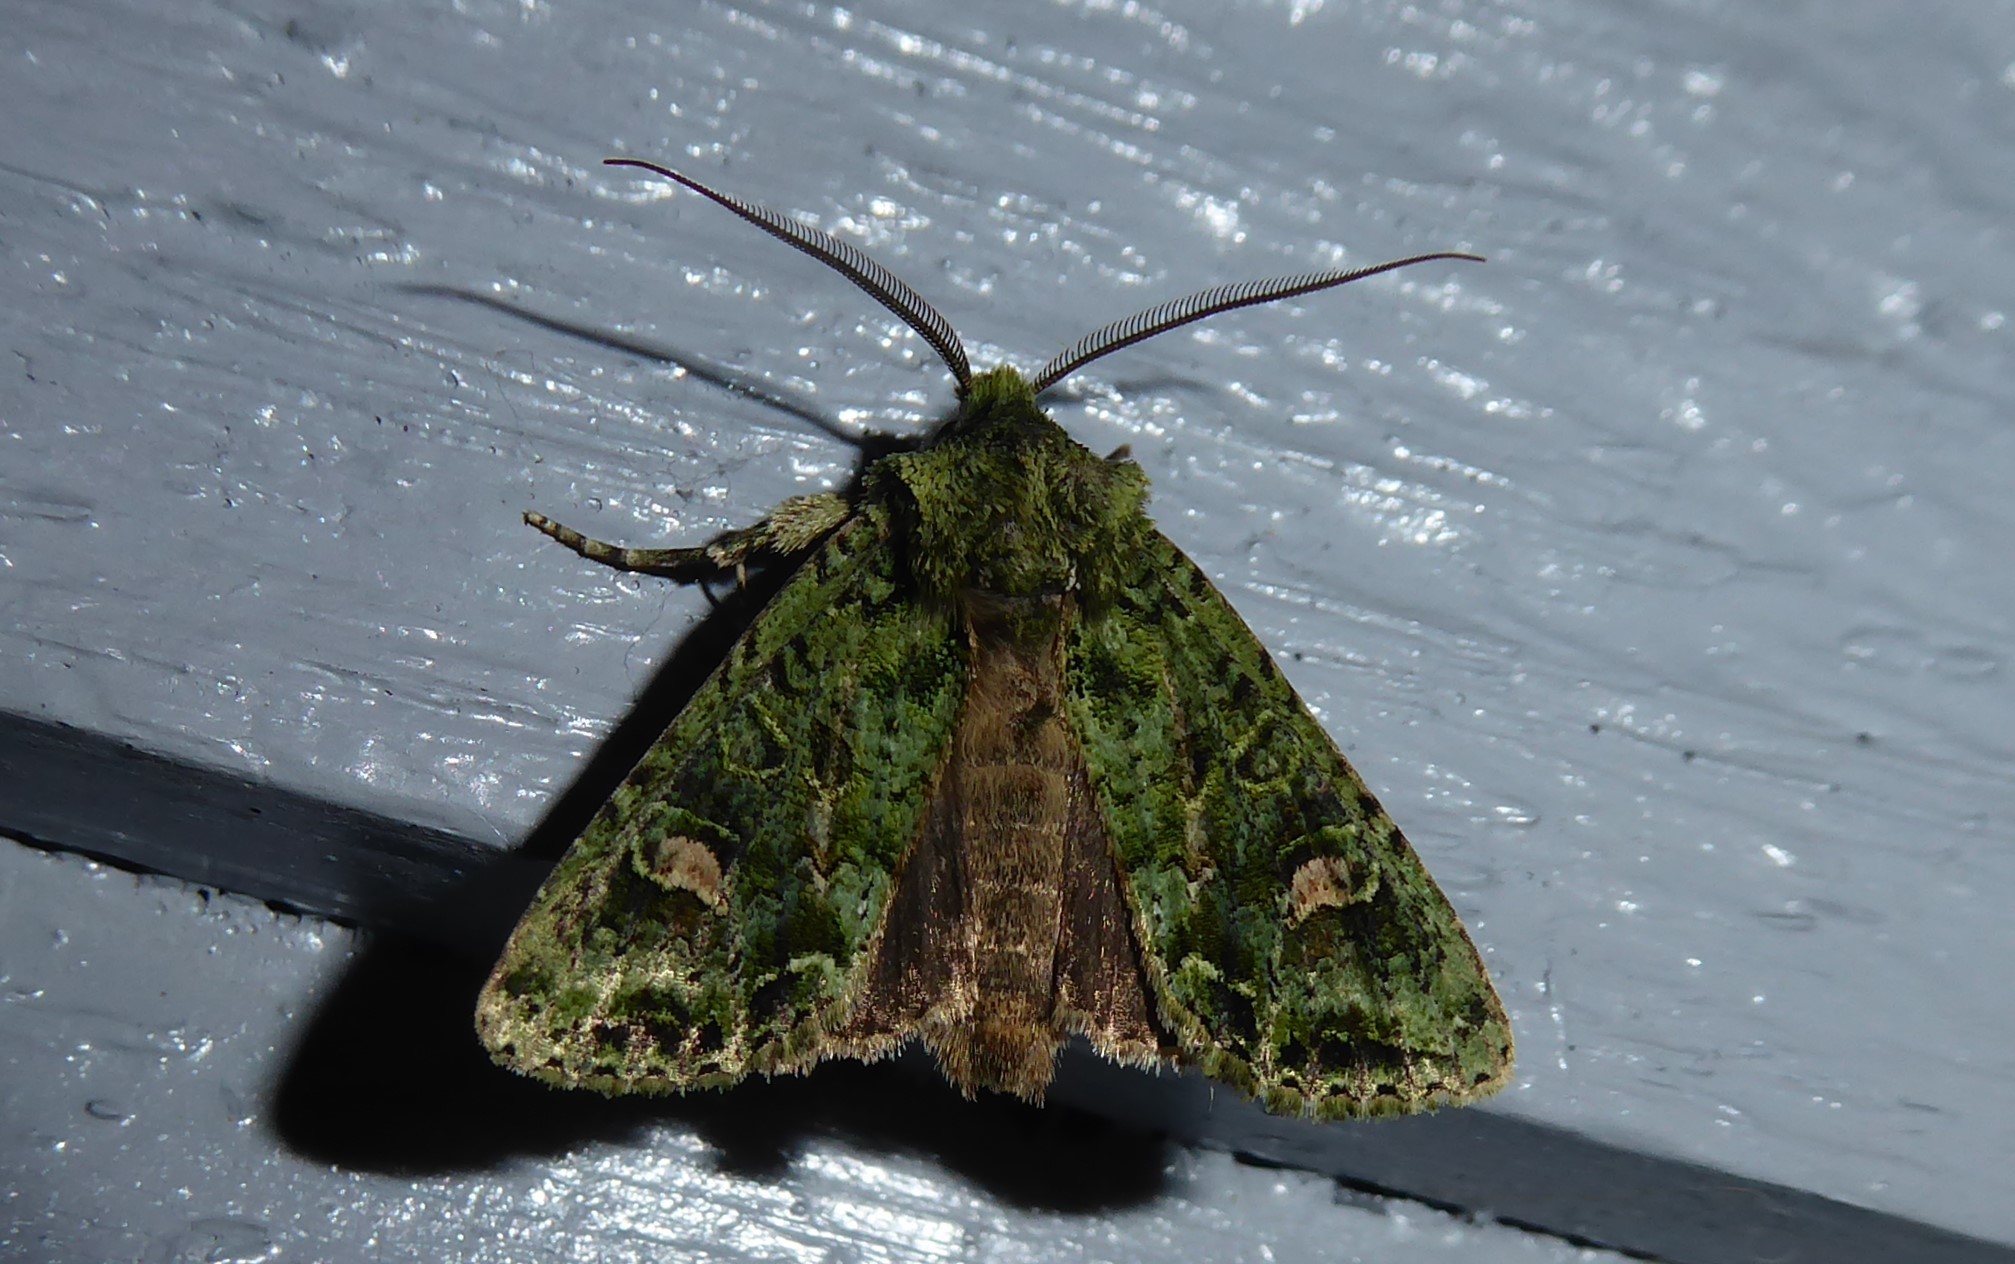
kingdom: Animalia
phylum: Arthropoda
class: Insecta
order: Lepidoptera
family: Noctuidae
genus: Ichneutica
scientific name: Ichneutica
